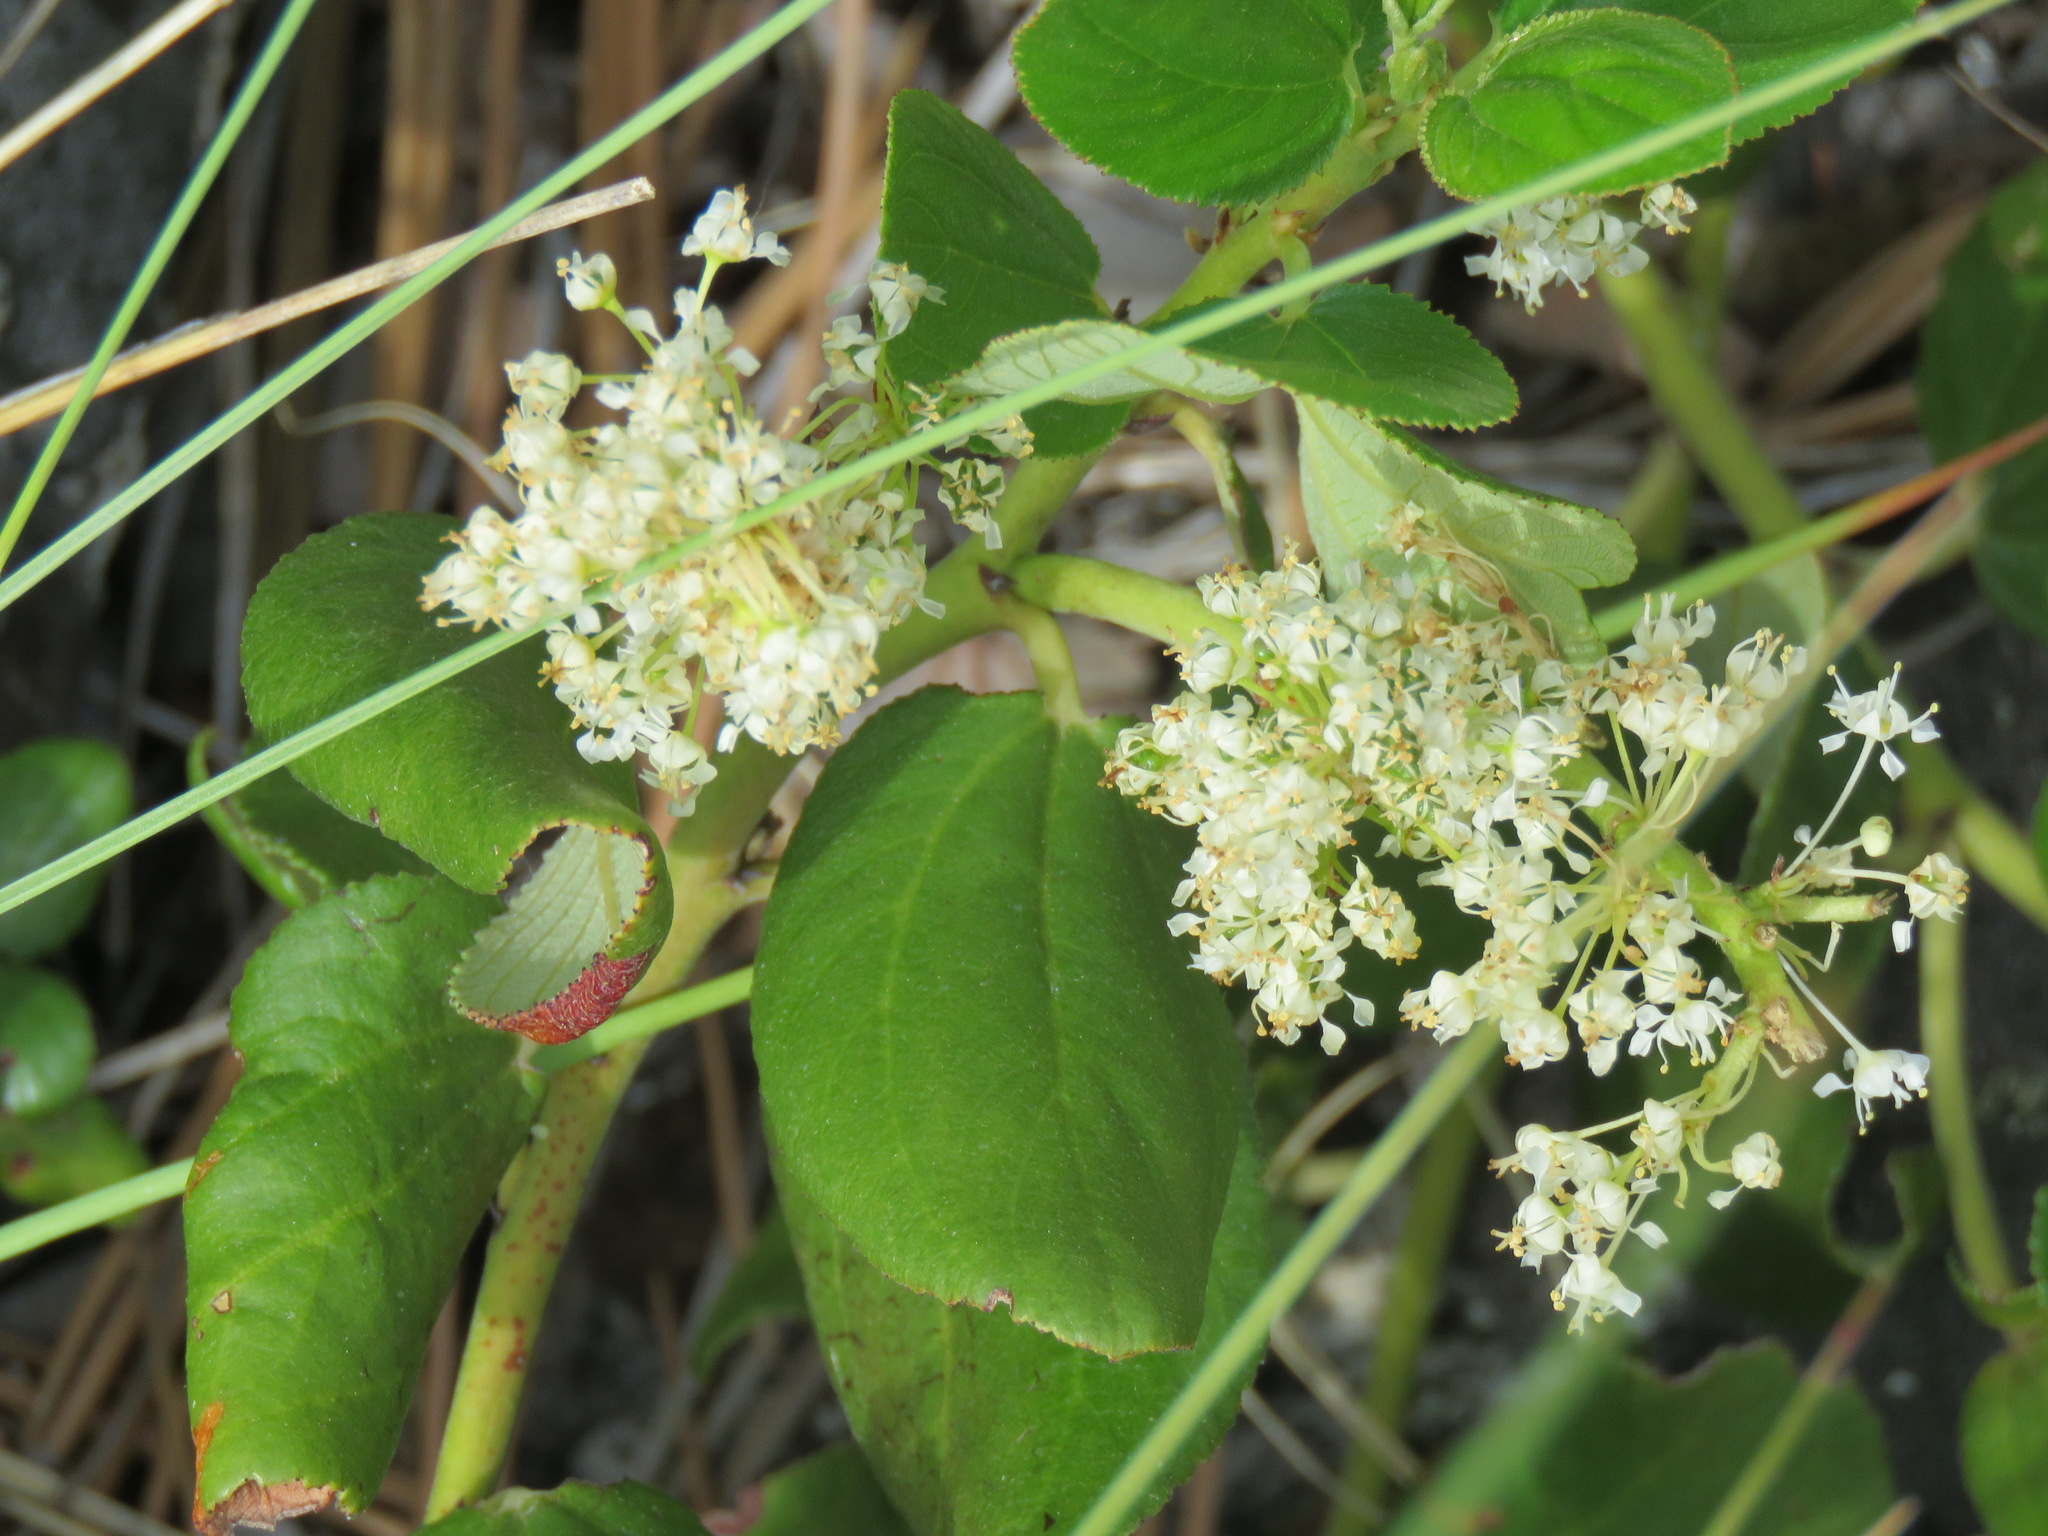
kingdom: Plantae
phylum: Tracheophyta
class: Magnoliopsida
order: Rosales
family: Rhamnaceae
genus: Ceanothus
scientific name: Ceanothus velutinus
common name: Snowbrush
